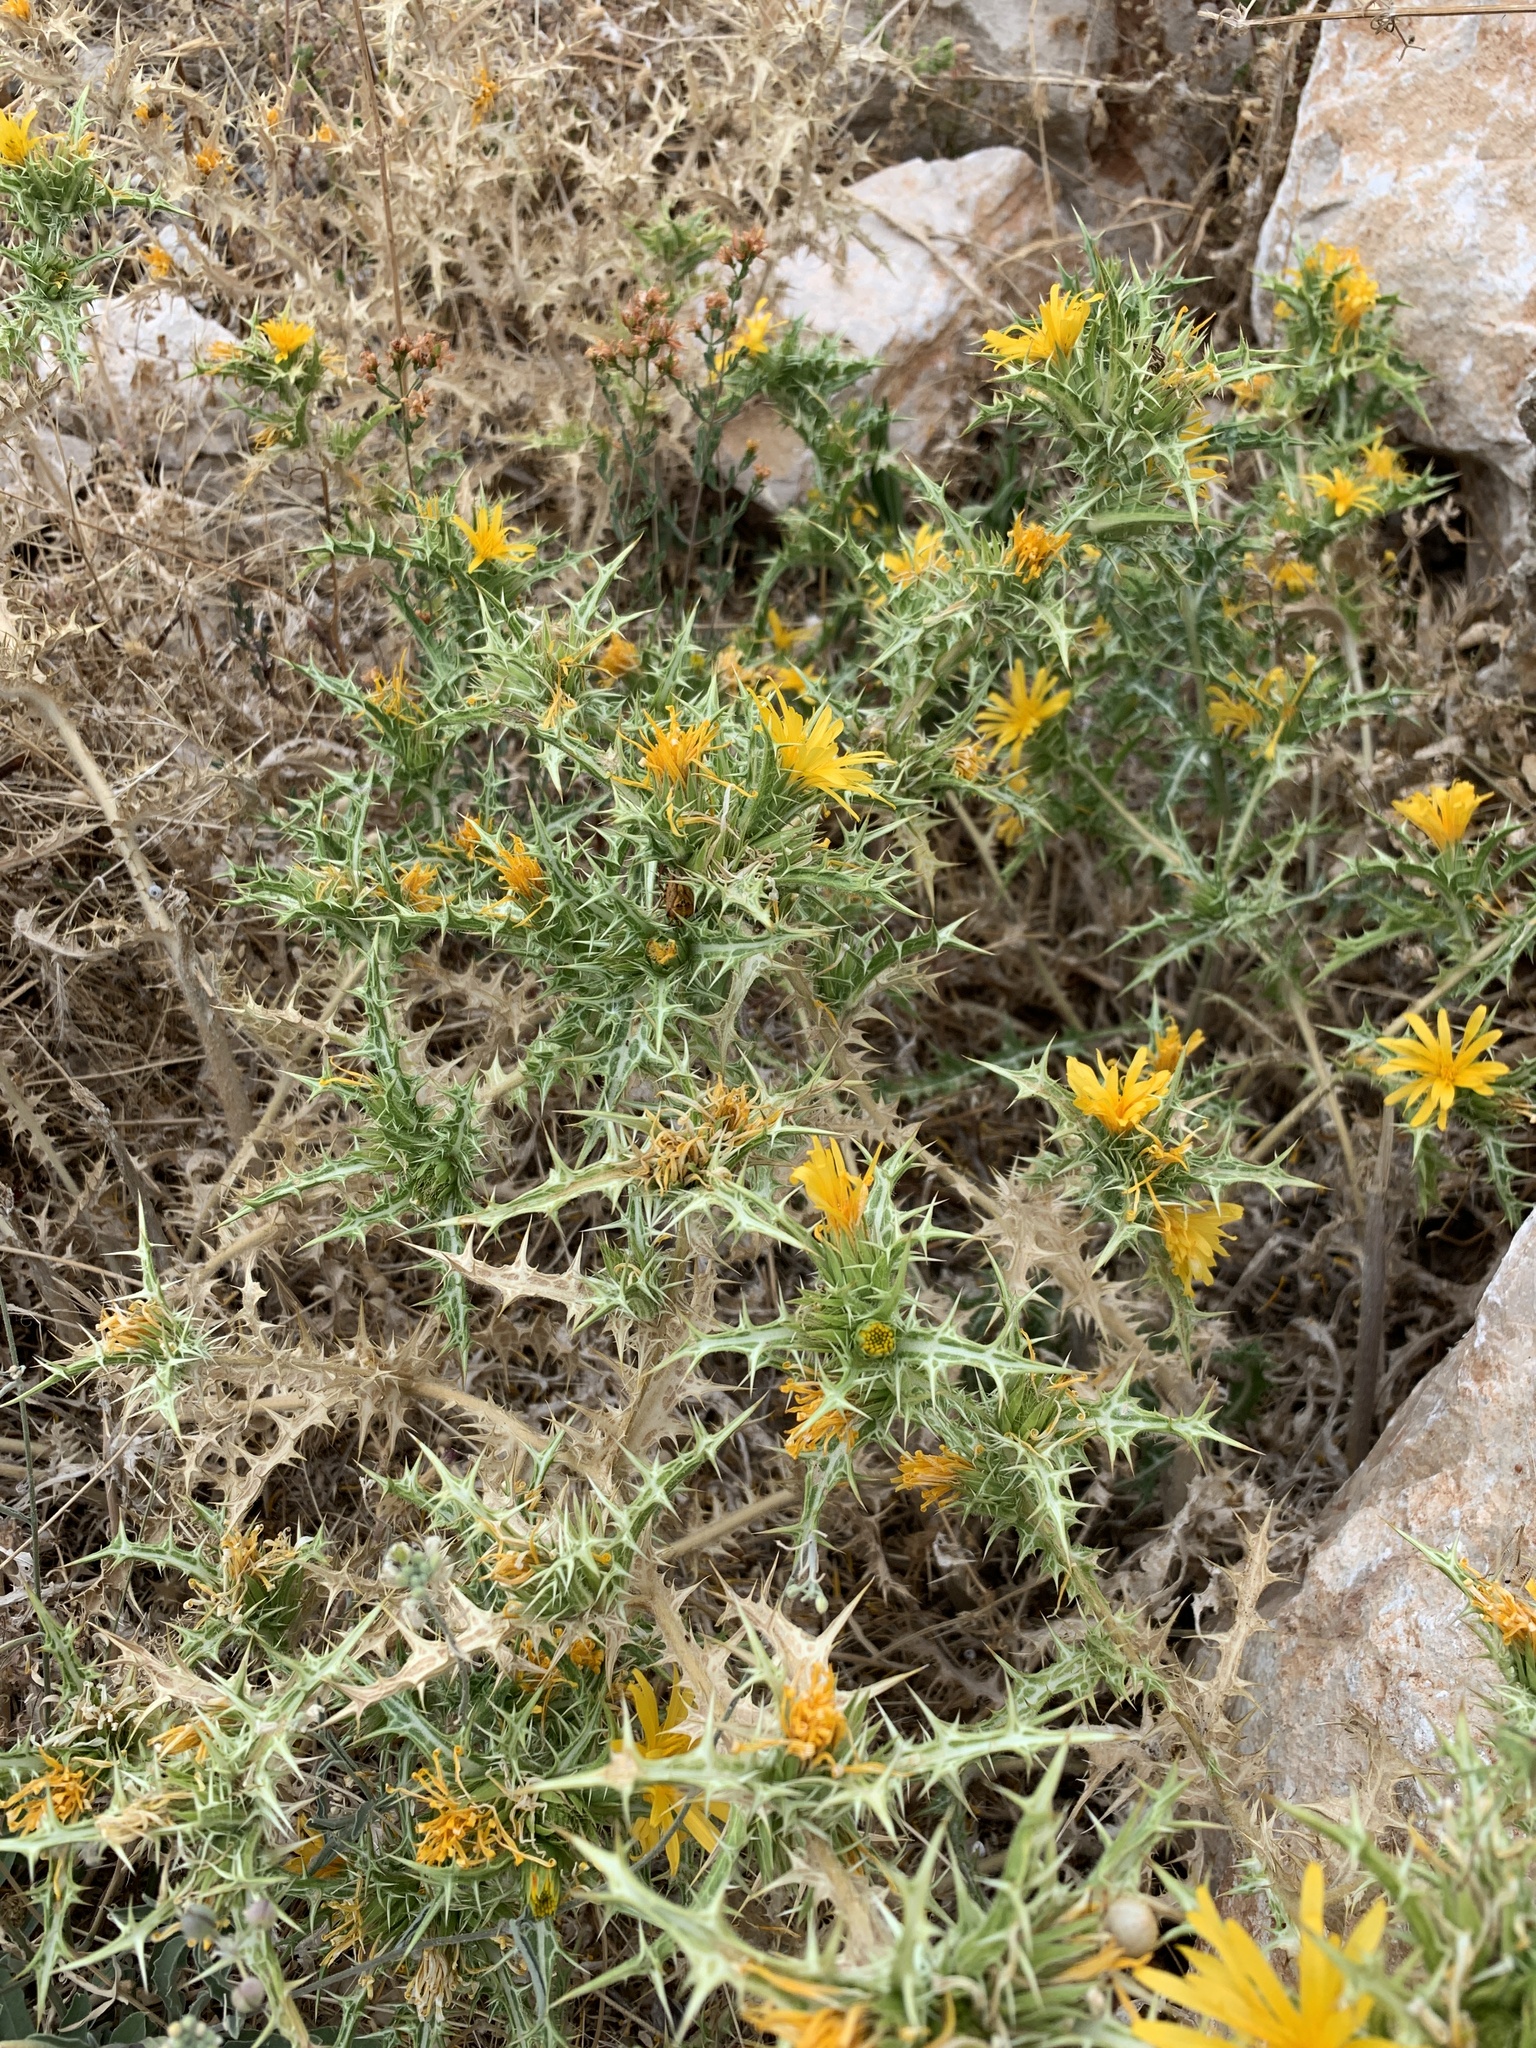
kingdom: Plantae
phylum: Tracheophyta
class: Magnoliopsida
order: Asterales
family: Asteraceae
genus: Scolymus
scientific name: Scolymus hispanicus
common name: Golden thistle
